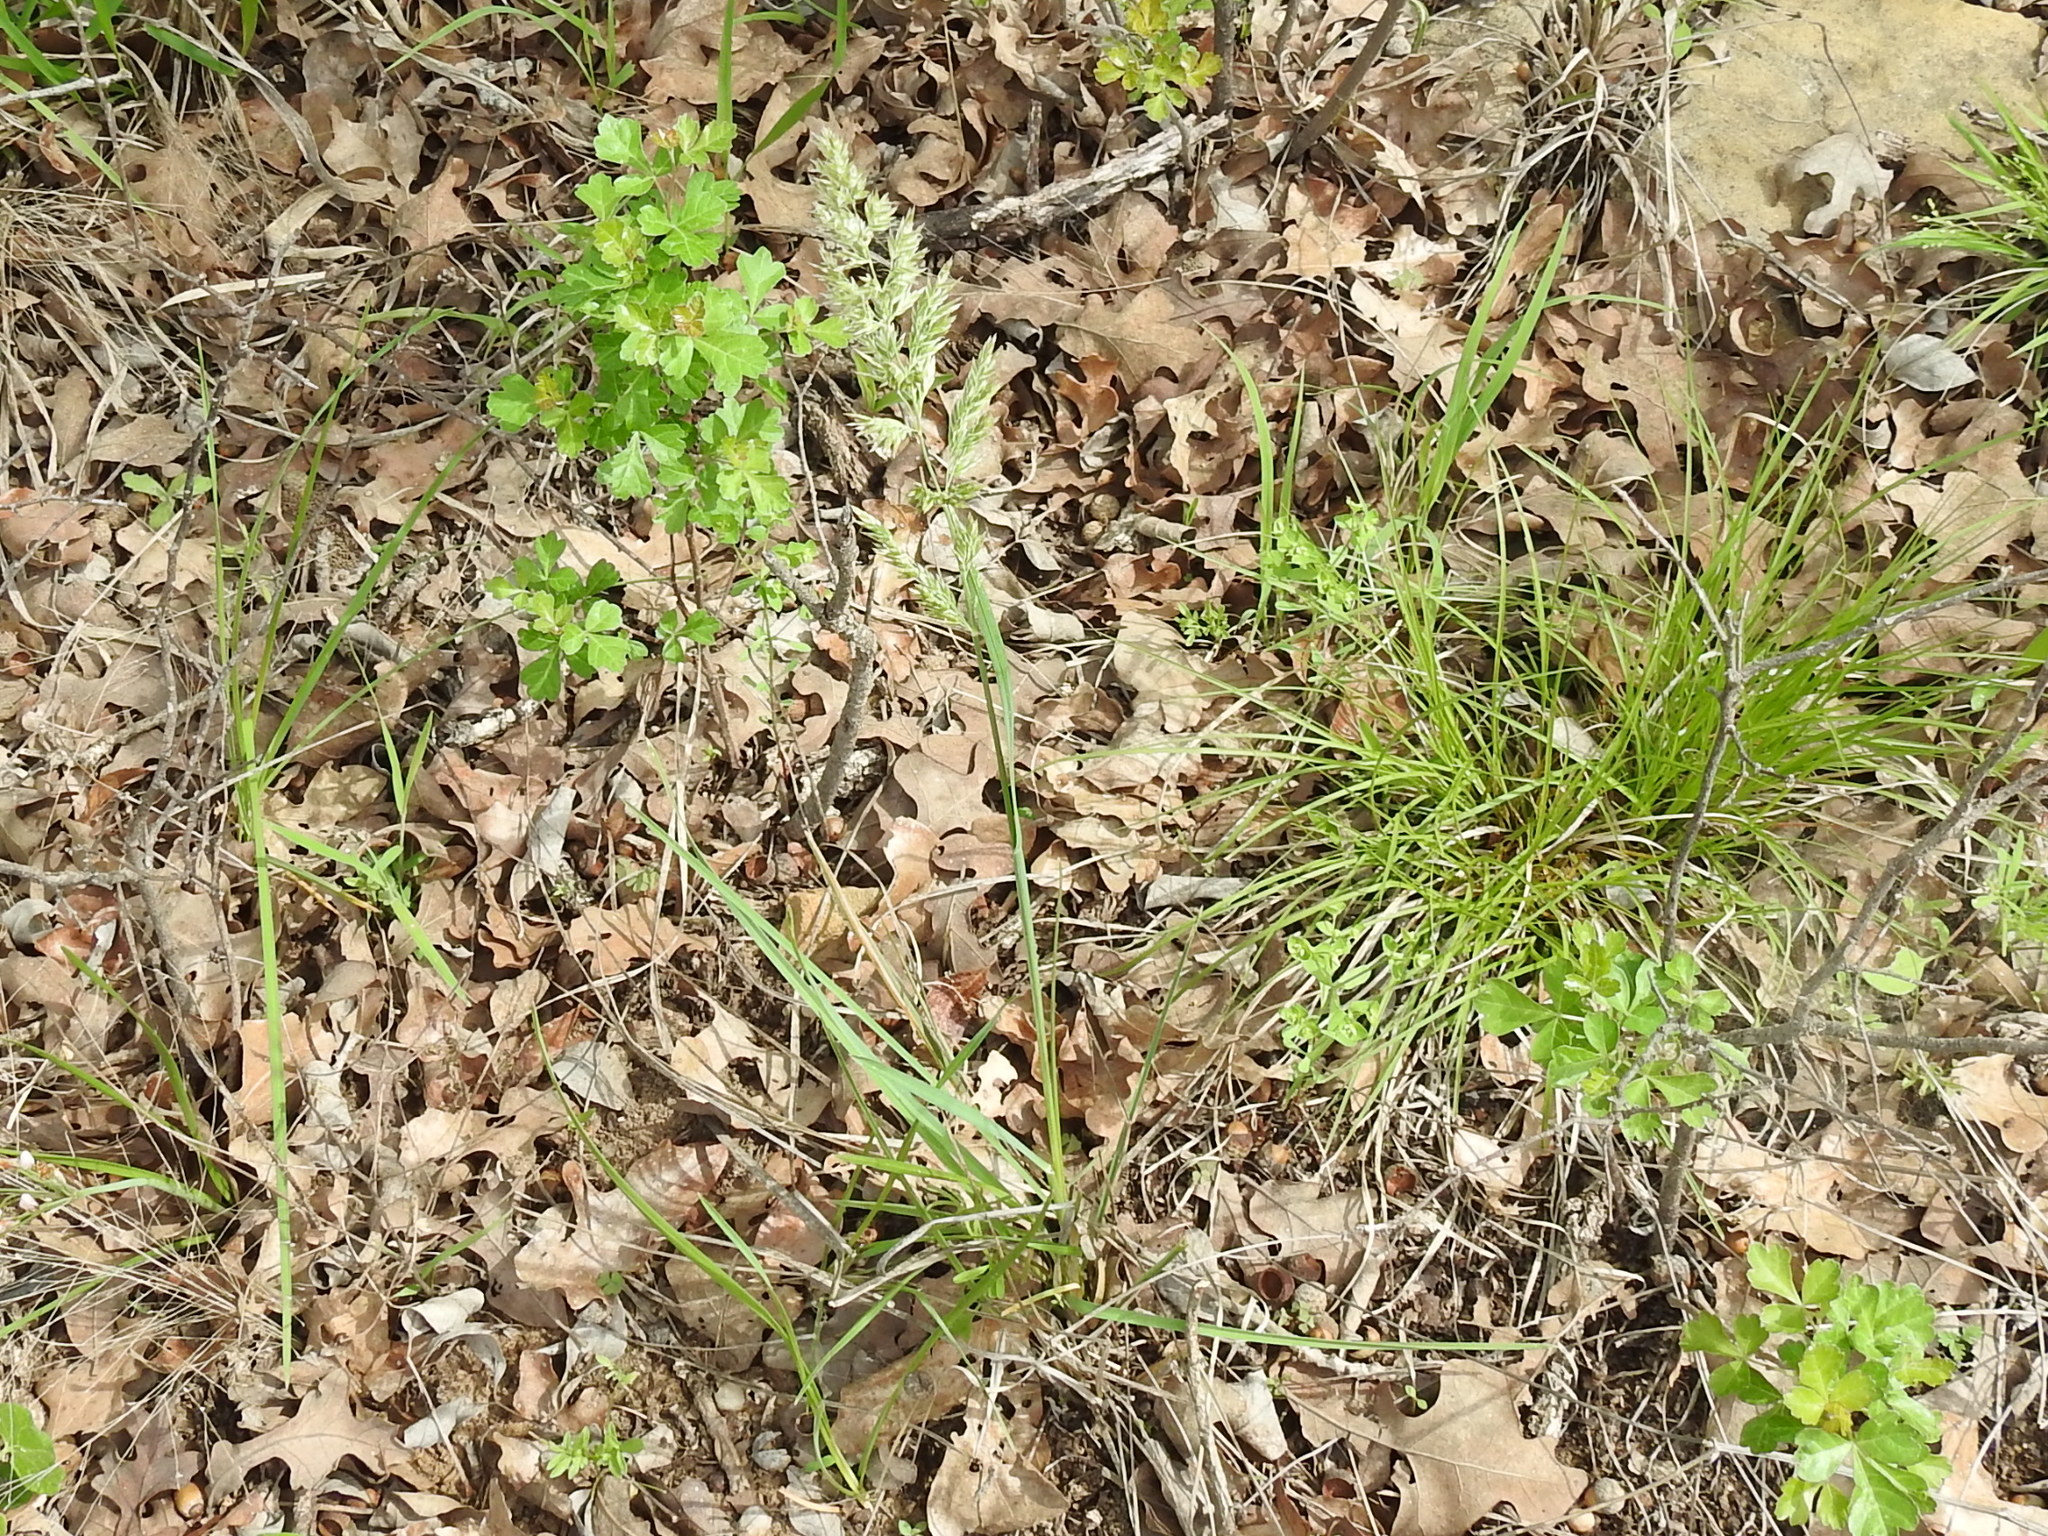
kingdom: Plantae
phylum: Tracheophyta
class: Liliopsida
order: Poales
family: Poaceae
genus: Poa
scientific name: Poa arachnifera
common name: Texas bluegrass
